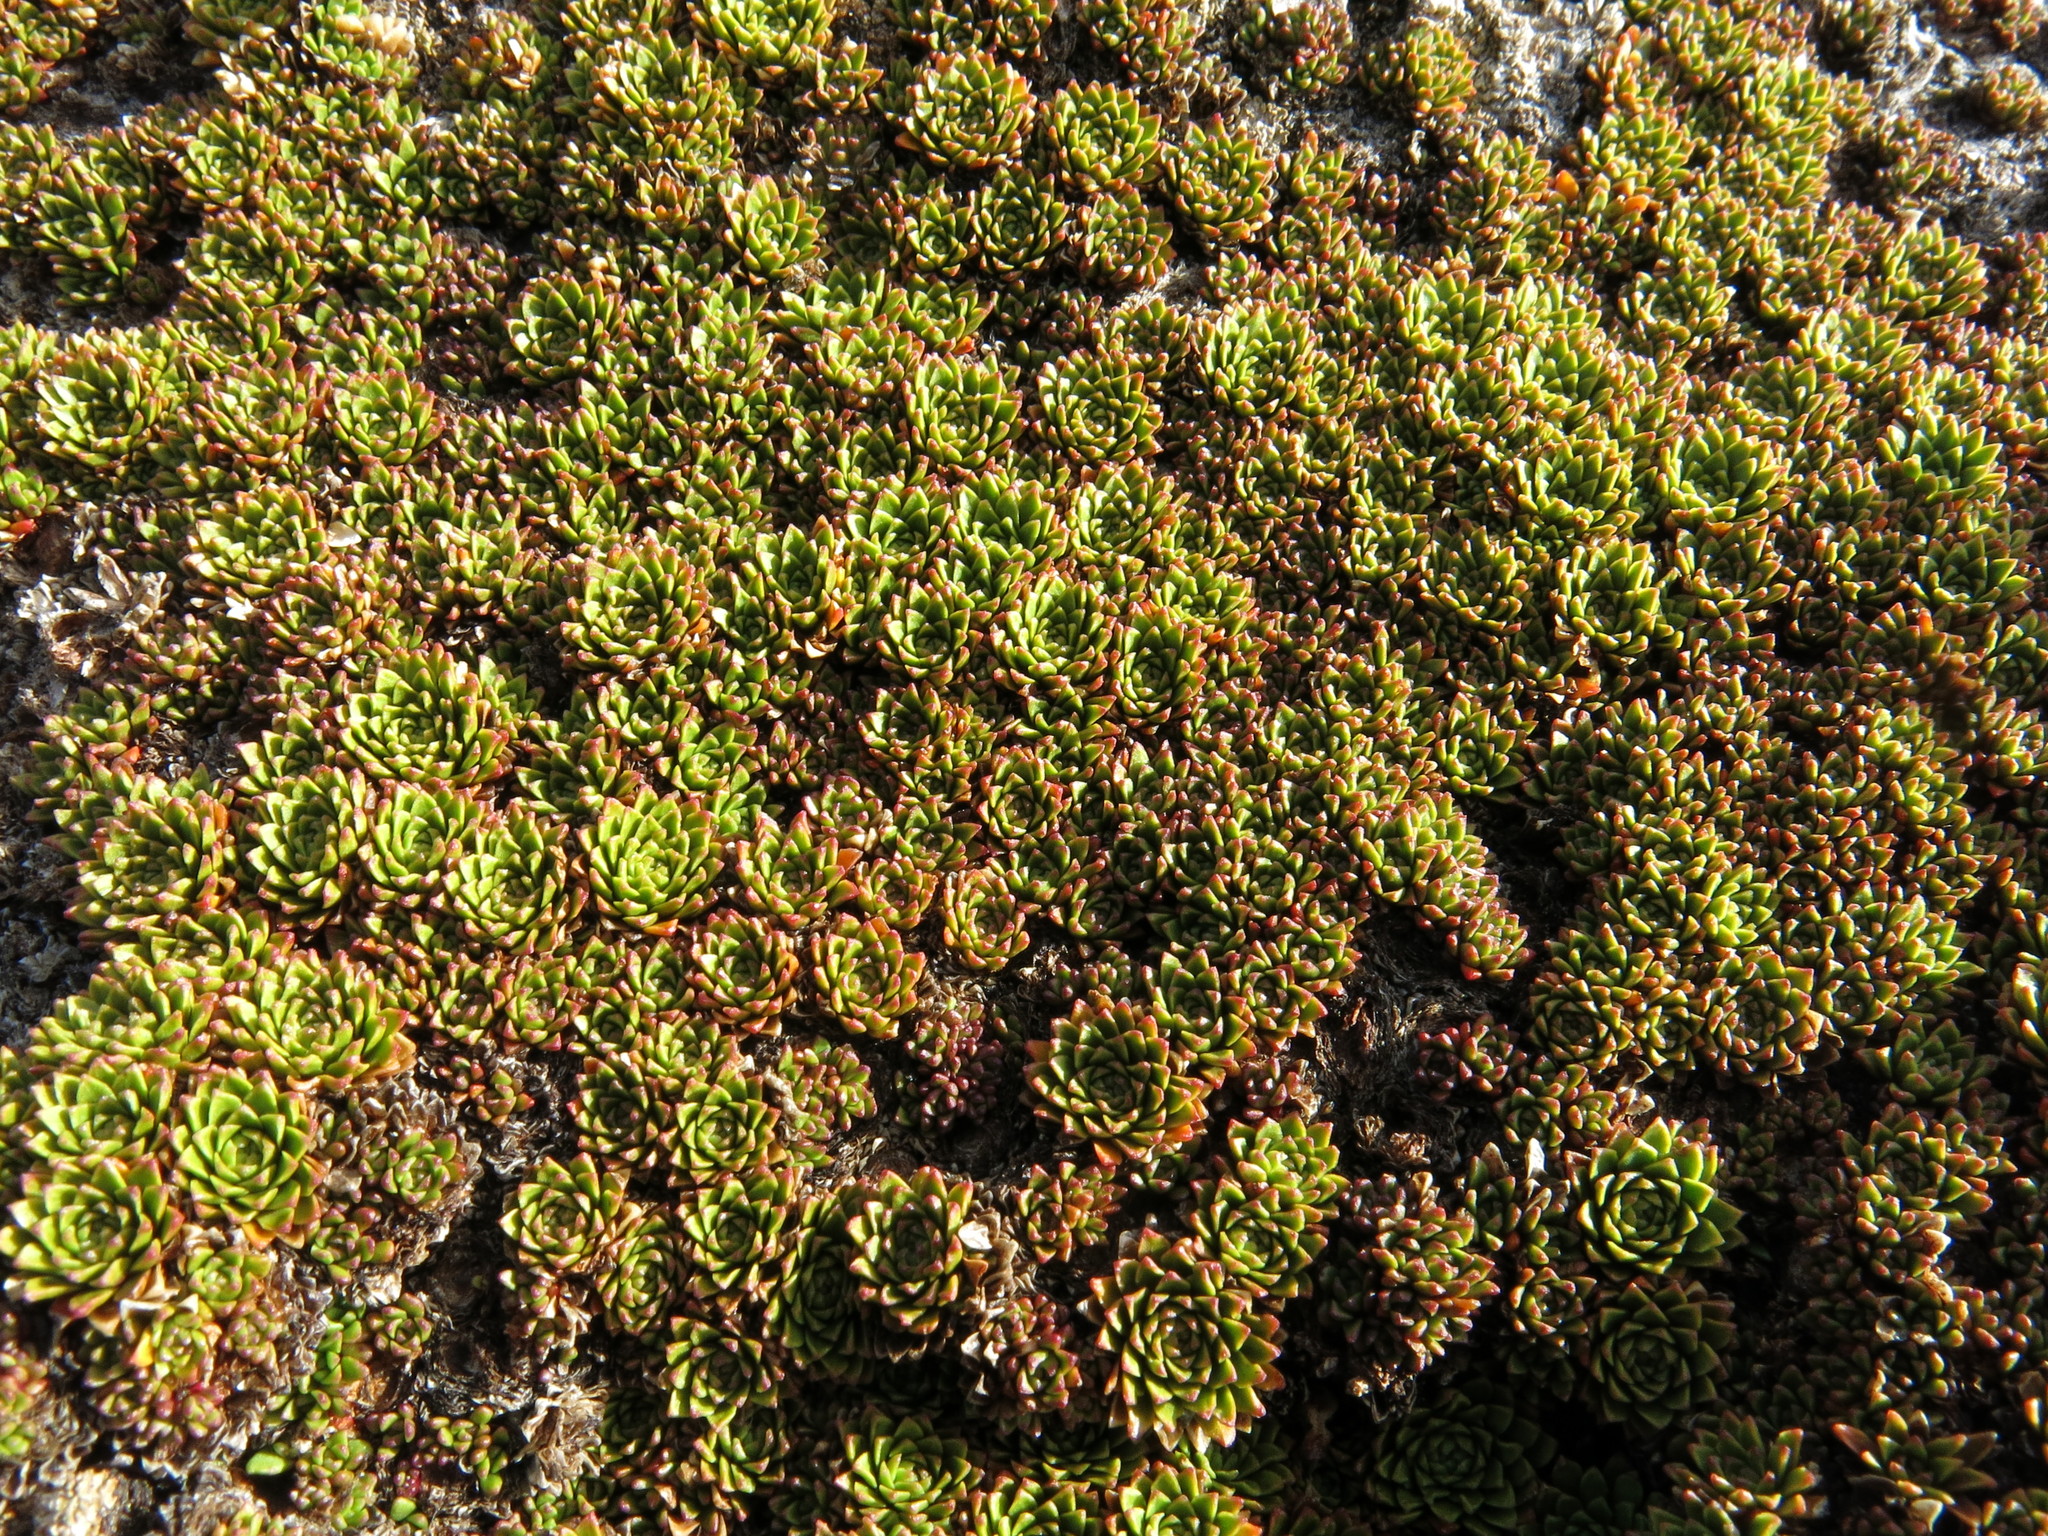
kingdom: Plantae
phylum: Tracheophyta
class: Magnoliopsida
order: Caryophyllales
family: Montiaceae
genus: Hectorella
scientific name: Hectorella caespitosa
